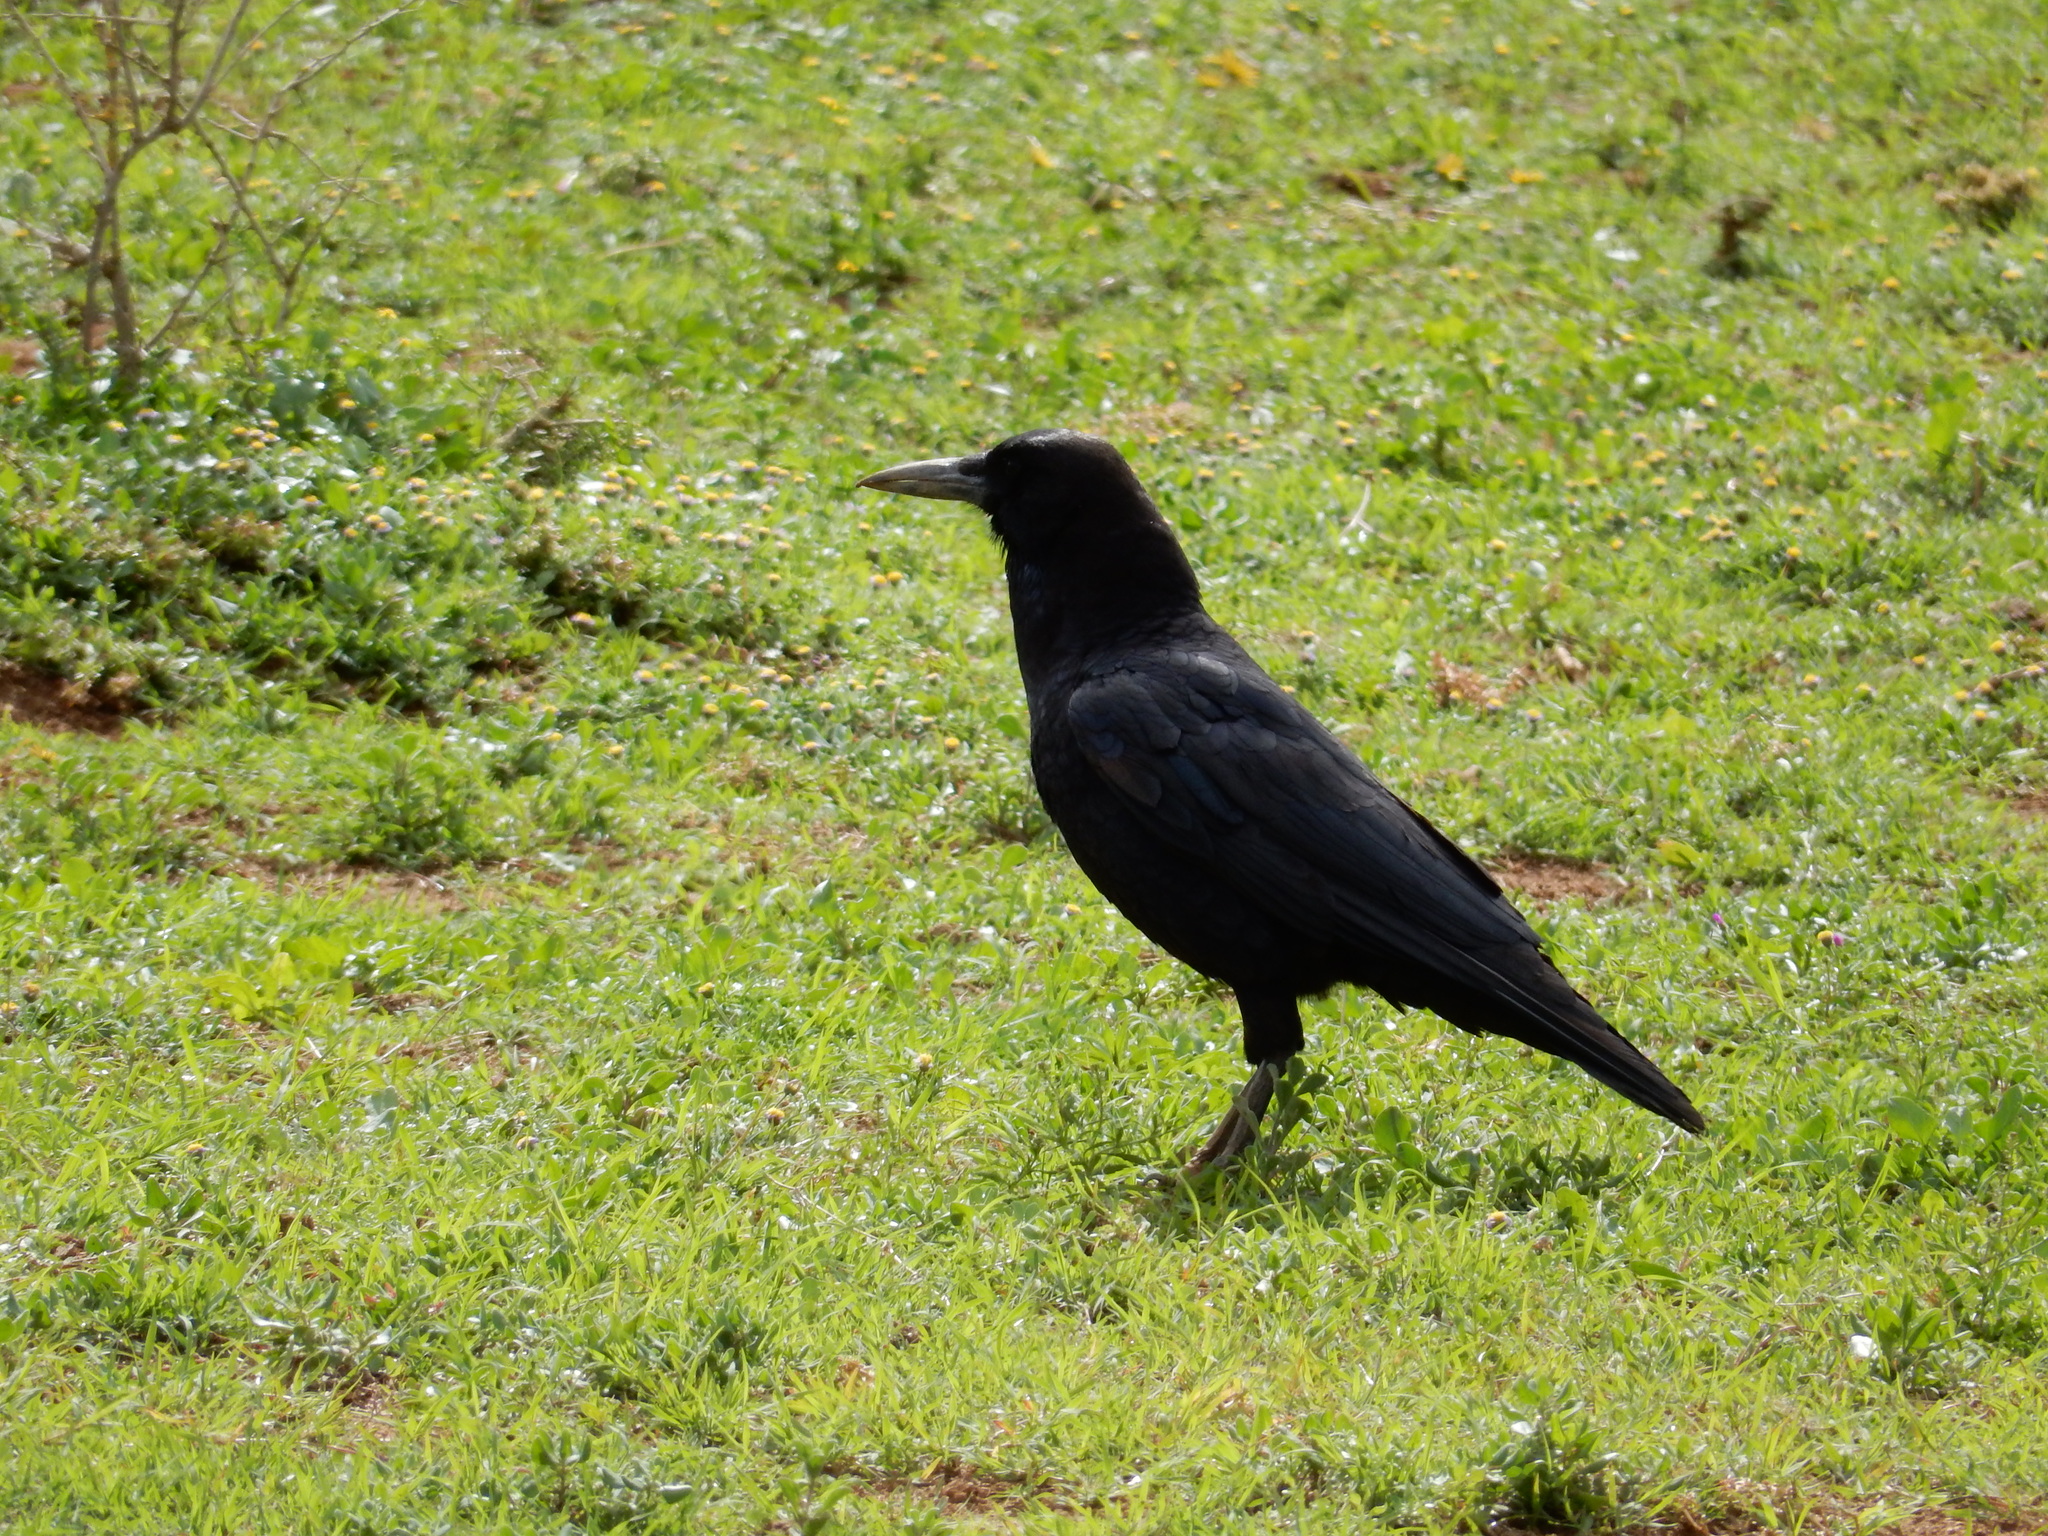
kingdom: Animalia
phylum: Chordata
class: Aves
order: Passeriformes
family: Corvidae
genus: Corvus
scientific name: Corvus capensis
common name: Cape crow
